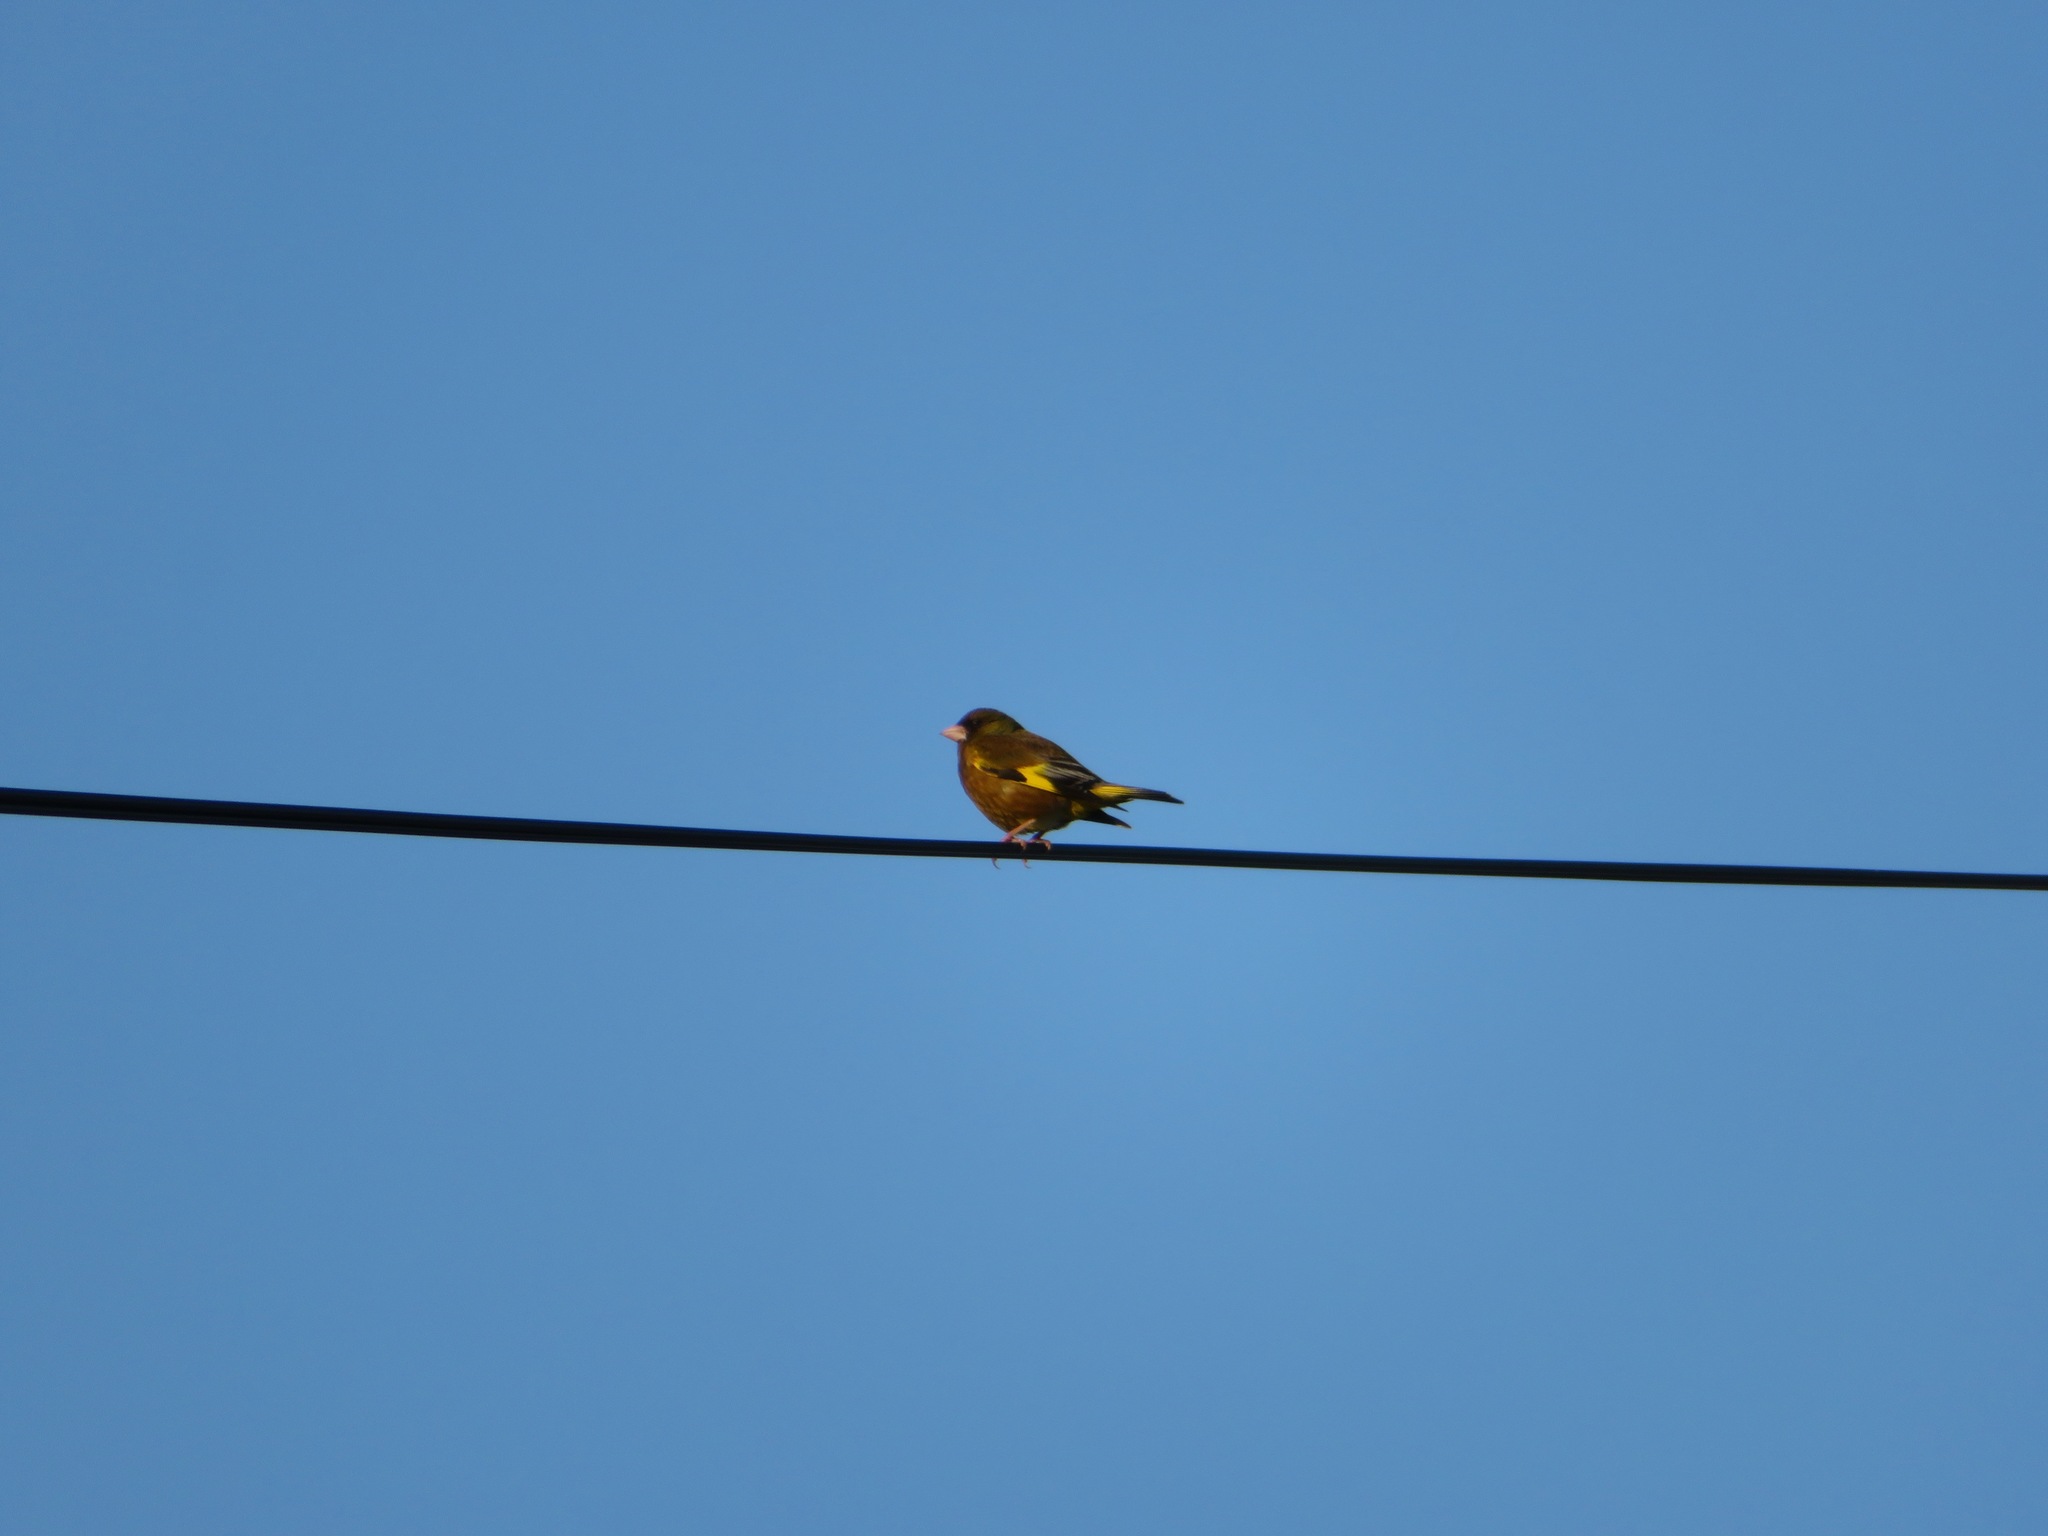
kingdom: Plantae
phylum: Tracheophyta
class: Liliopsida
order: Poales
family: Poaceae
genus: Chloris
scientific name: Chloris sinica
